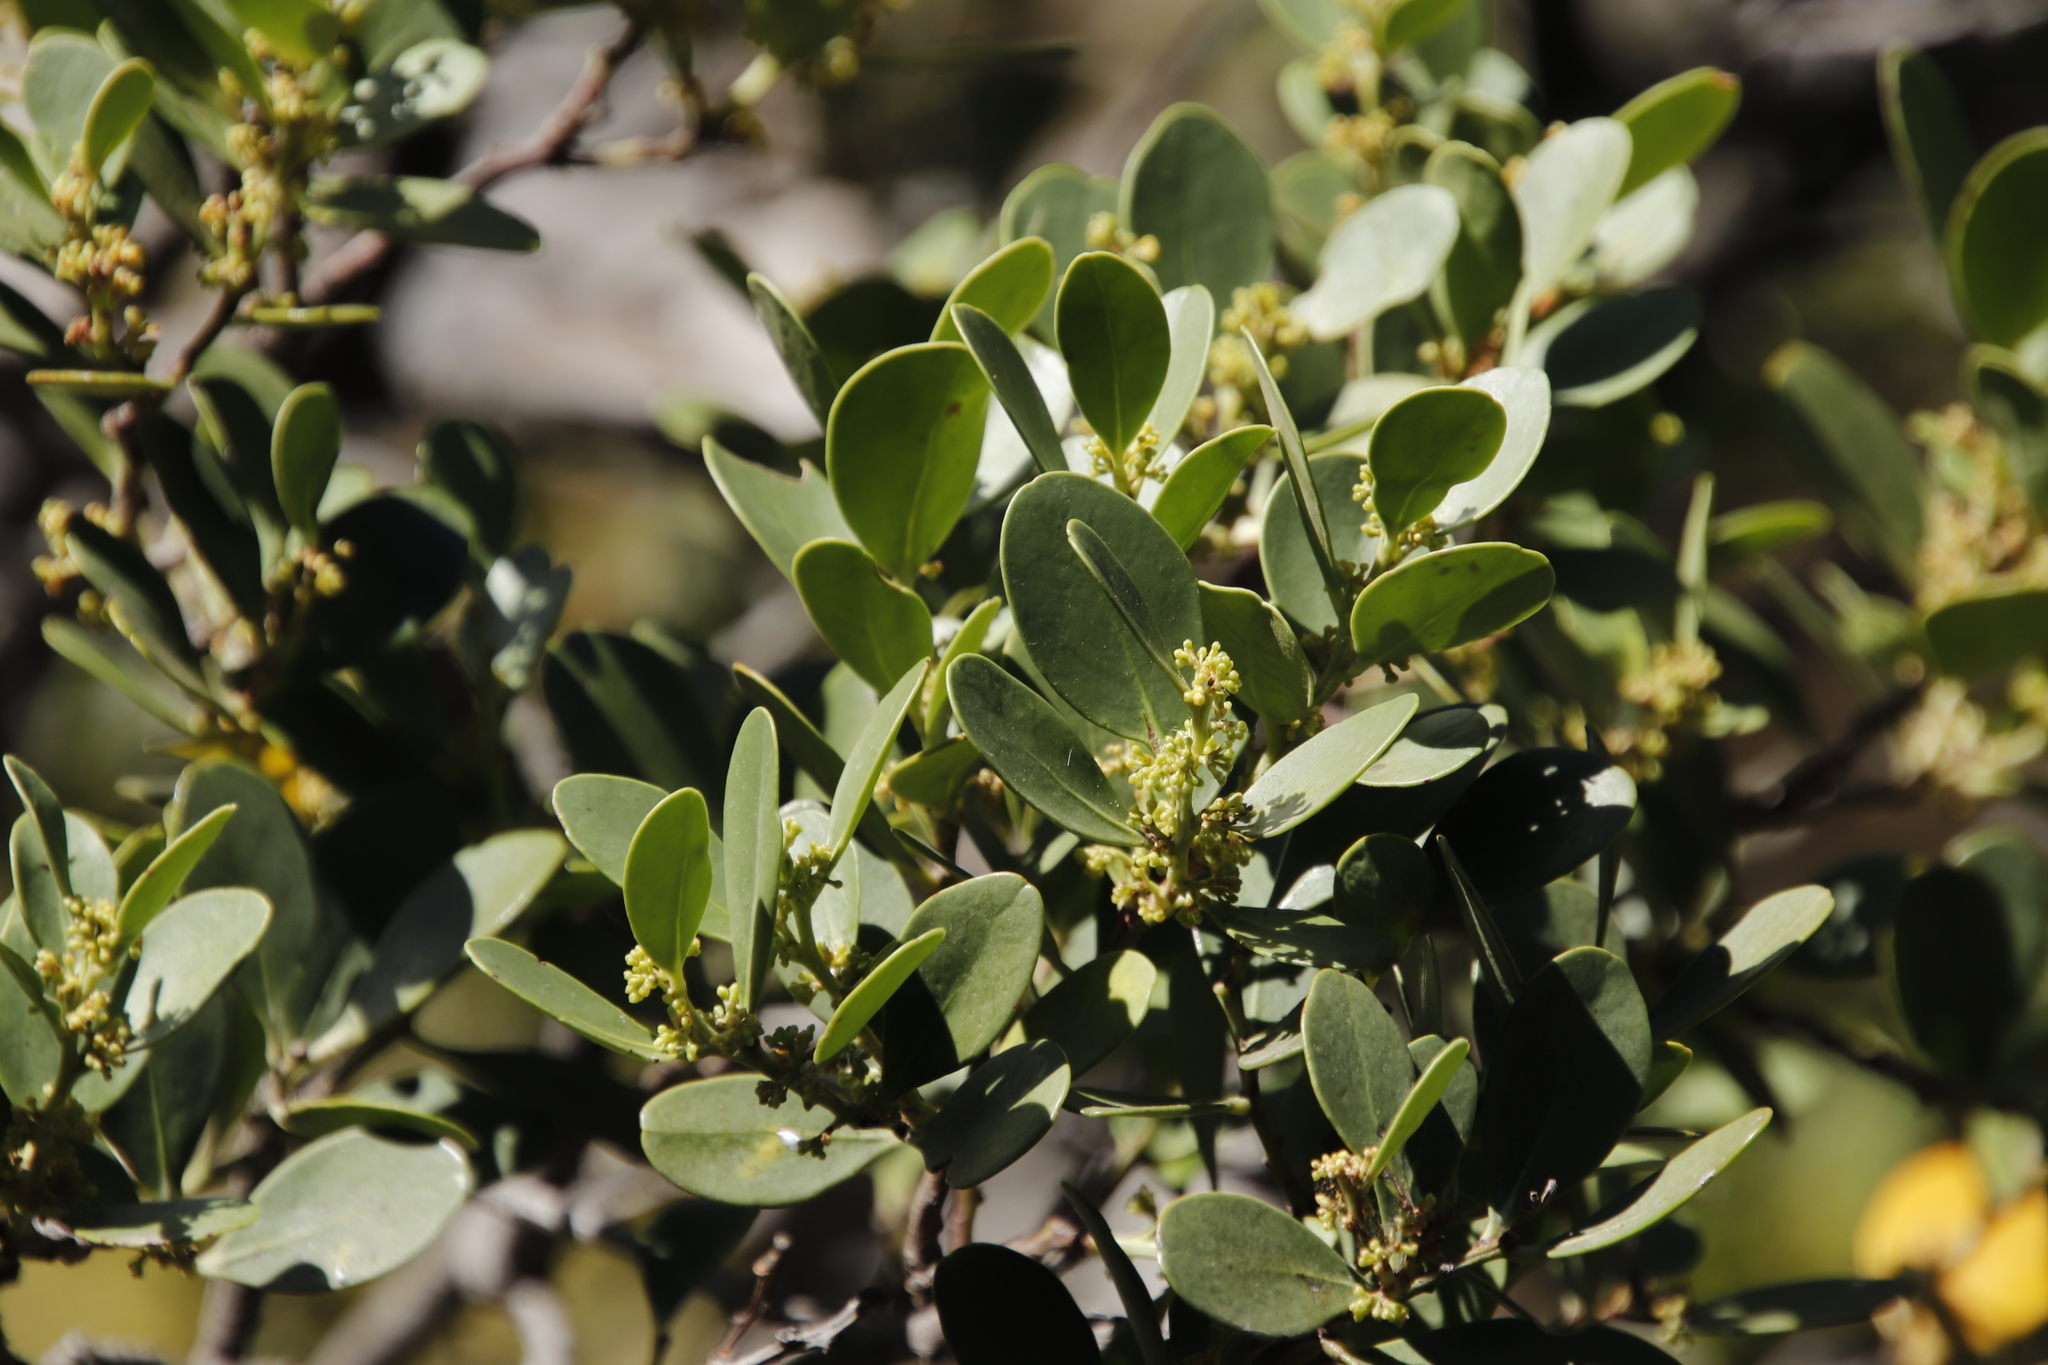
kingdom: Plantae
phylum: Tracheophyta
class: Magnoliopsida
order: Celastrales
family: Celastraceae
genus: Pterocelastrus
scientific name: Pterocelastrus tricuspidatus
